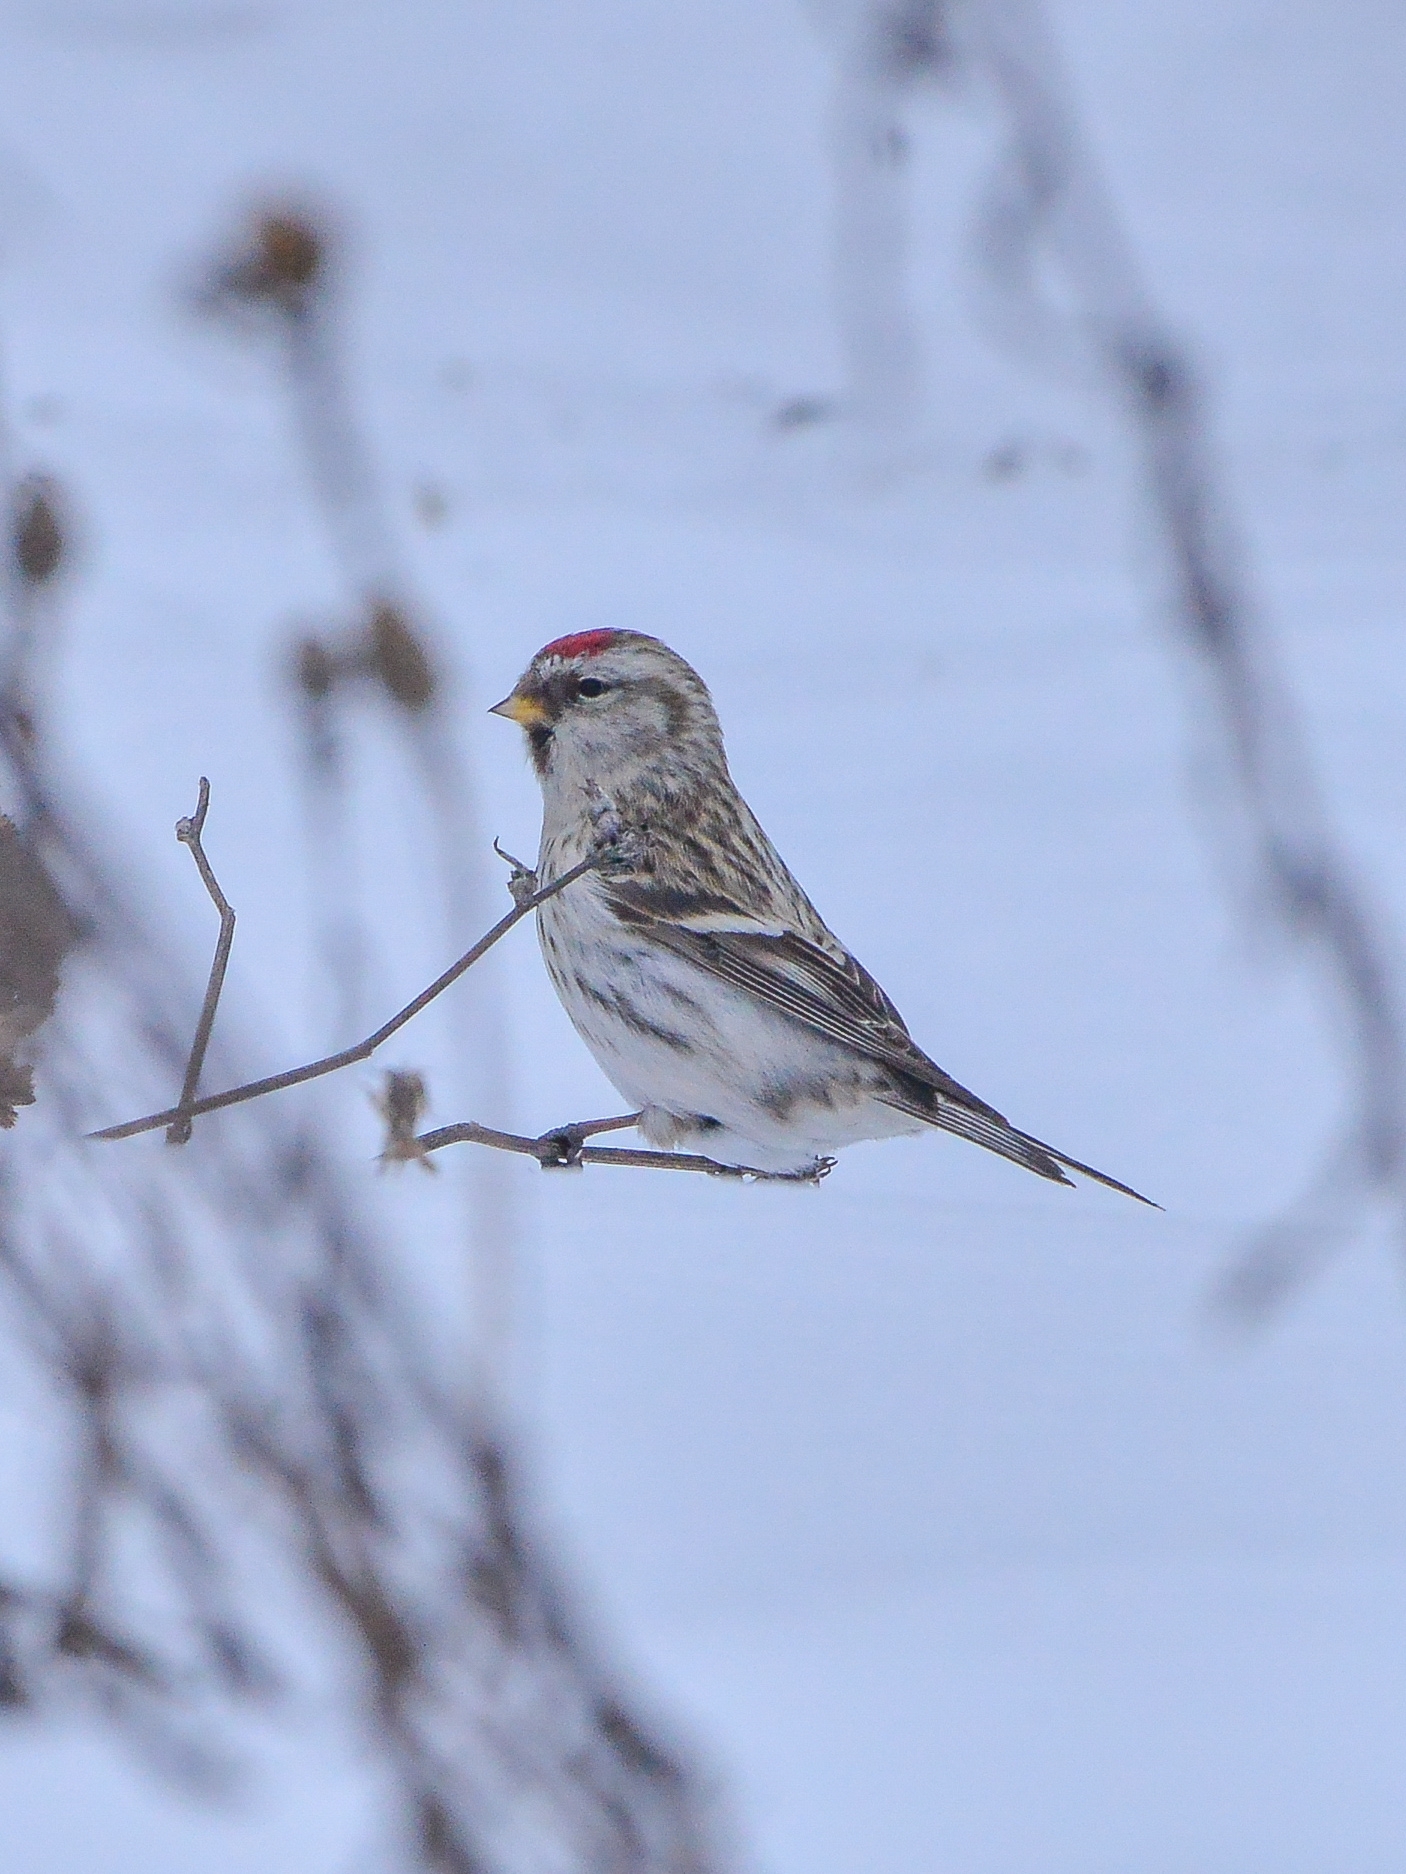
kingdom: Animalia
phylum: Chordata
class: Aves
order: Passeriformes
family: Fringillidae
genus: Acanthis
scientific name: Acanthis flammea
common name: Common redpoll
